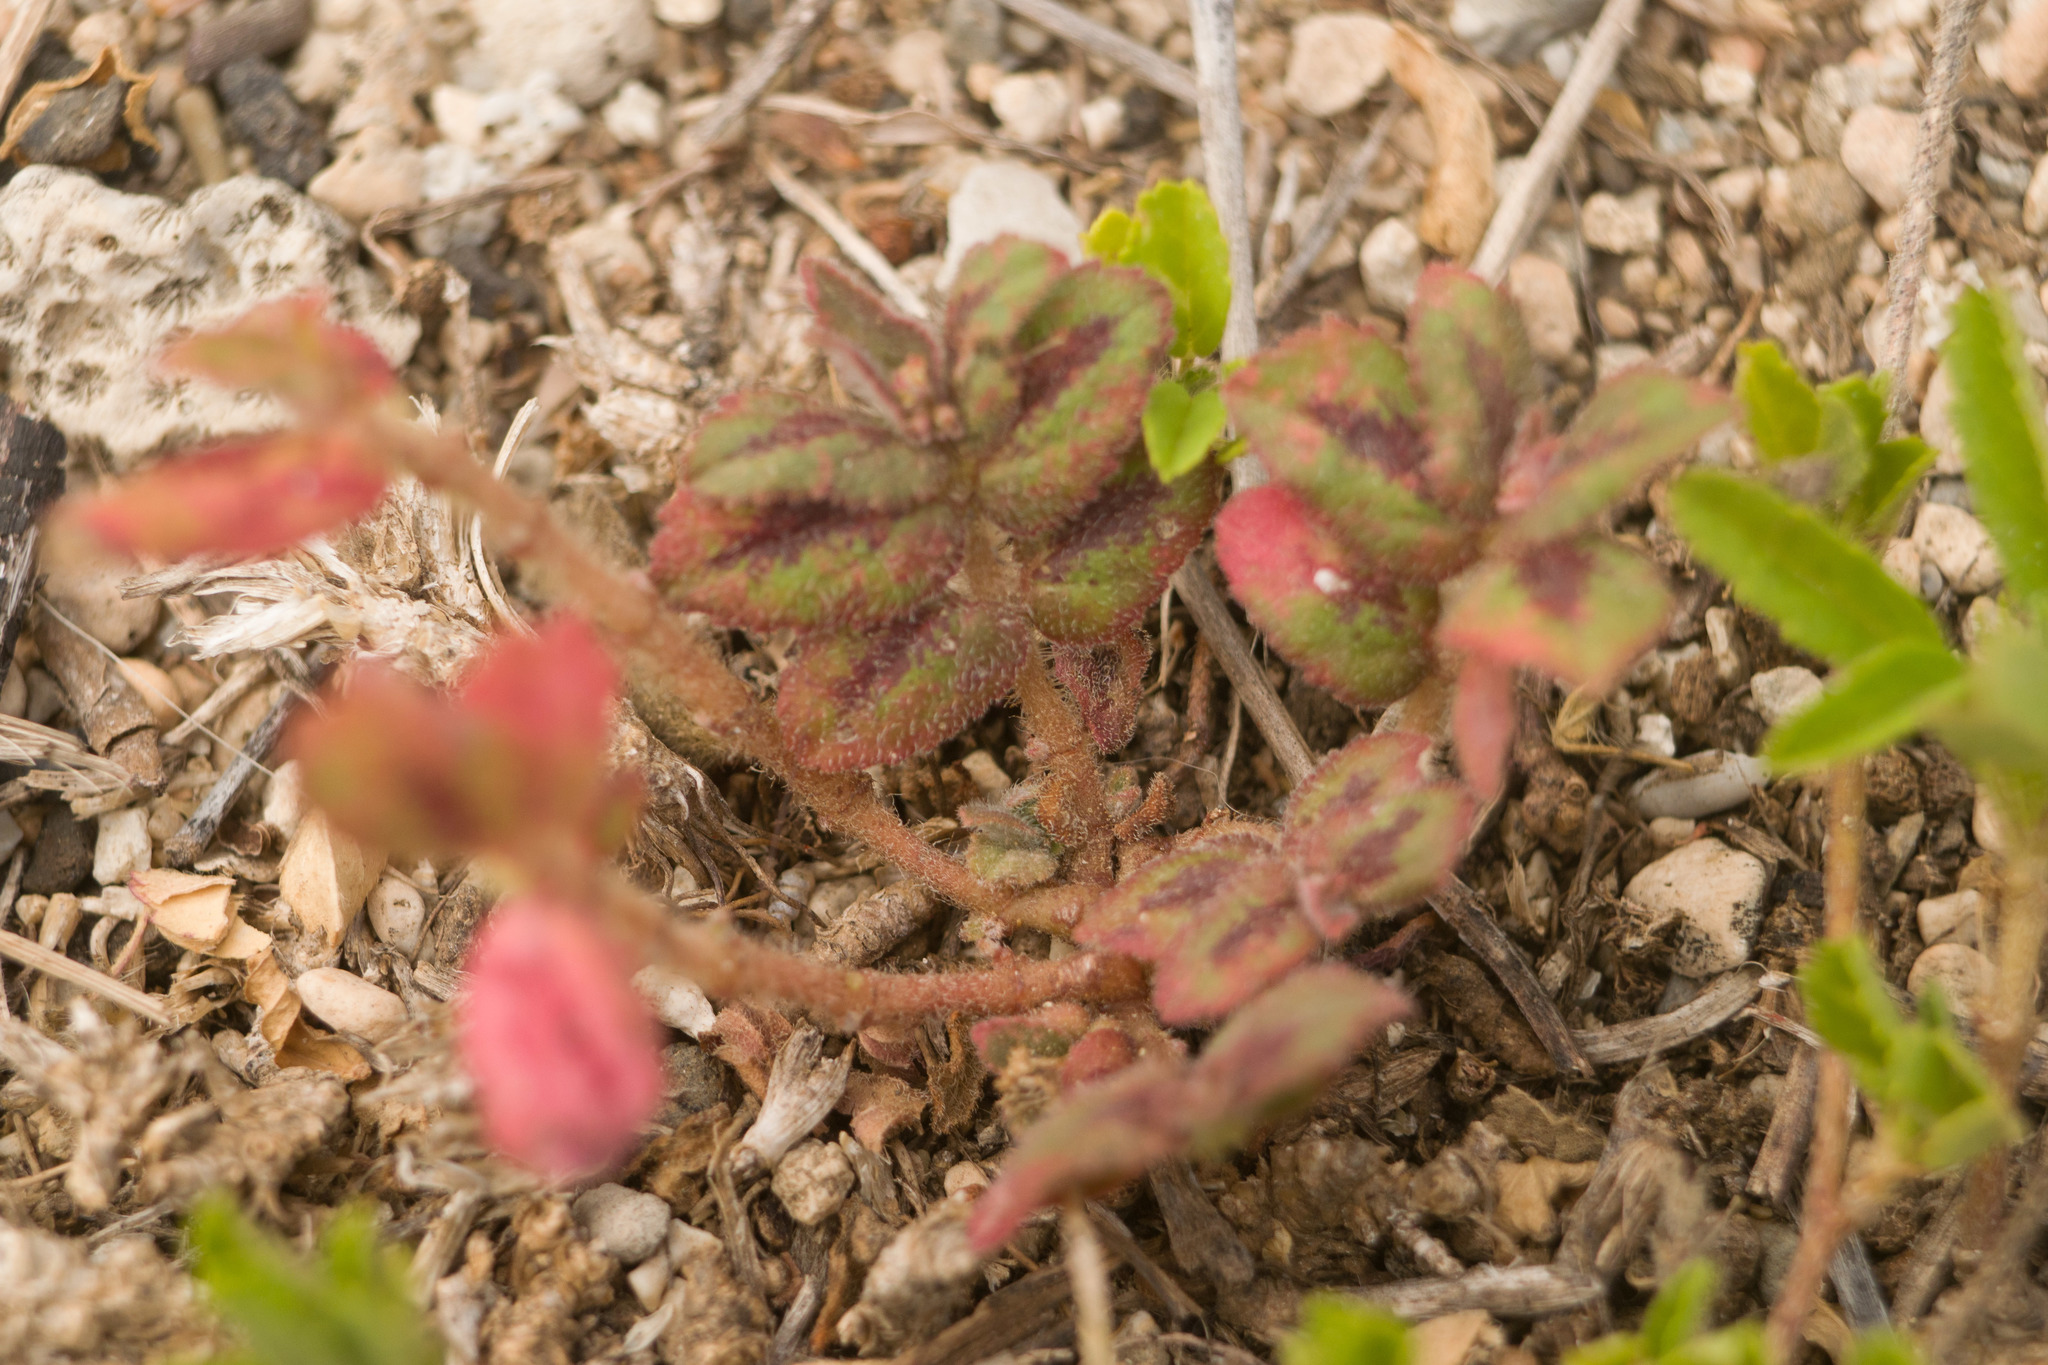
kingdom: Plantae
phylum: Tracheophyta
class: Magnoliopsida
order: Malpighiales
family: Euphorbiaceae
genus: Euphorbia
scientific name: Euphorbia hirta
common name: Pillpod sandmat
